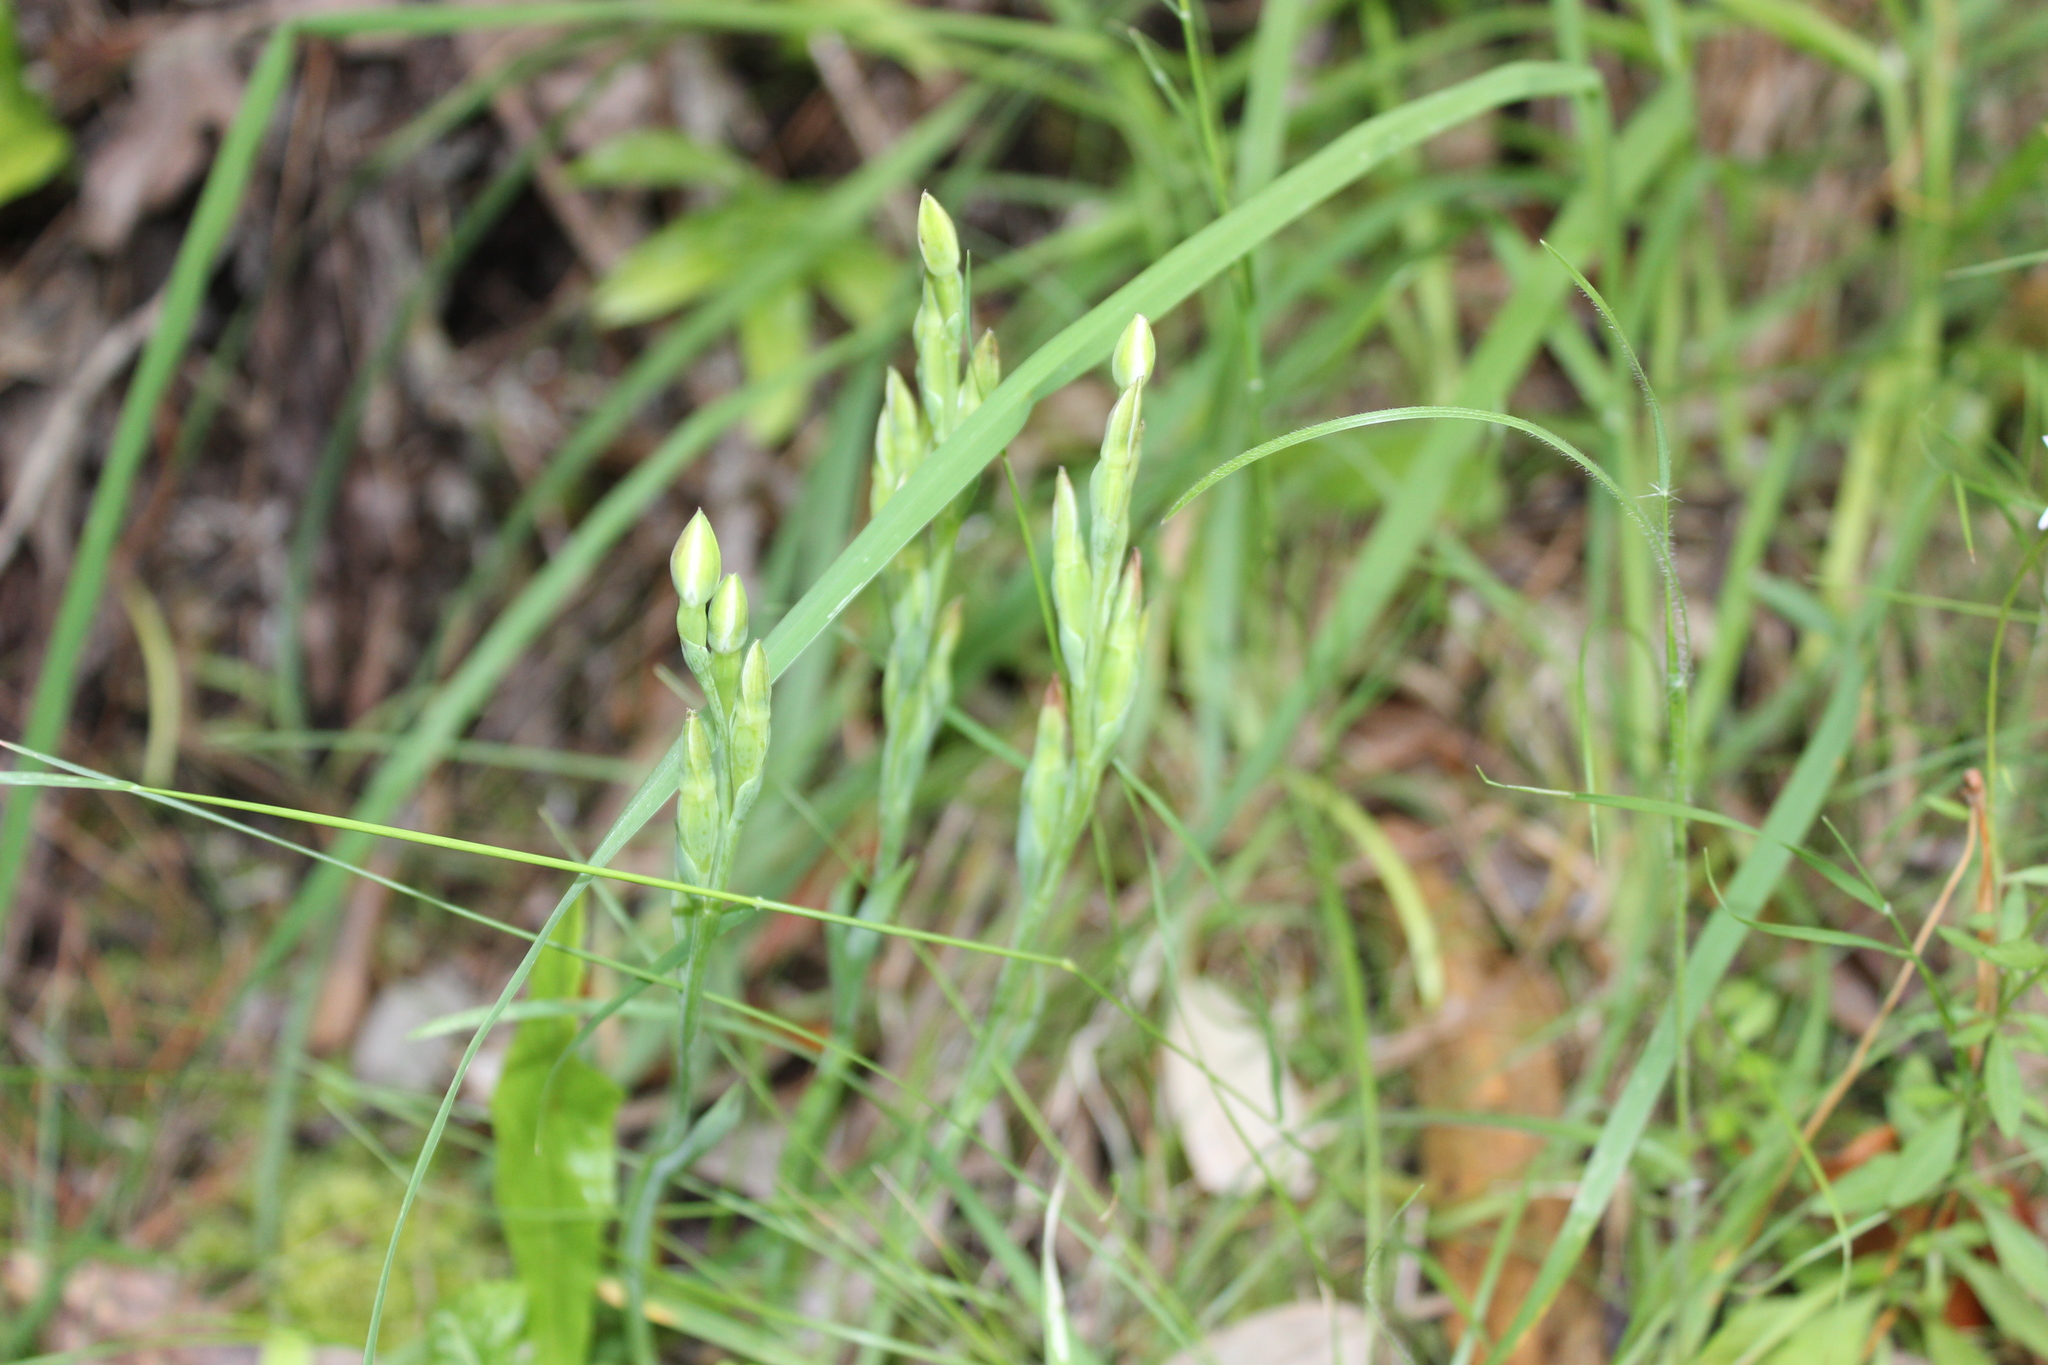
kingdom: Plantae
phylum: Tracheophyta
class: Liliopsida
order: Asparagales
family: Orchidaceae
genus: Thelymitra
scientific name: Thelymitra longifolia
